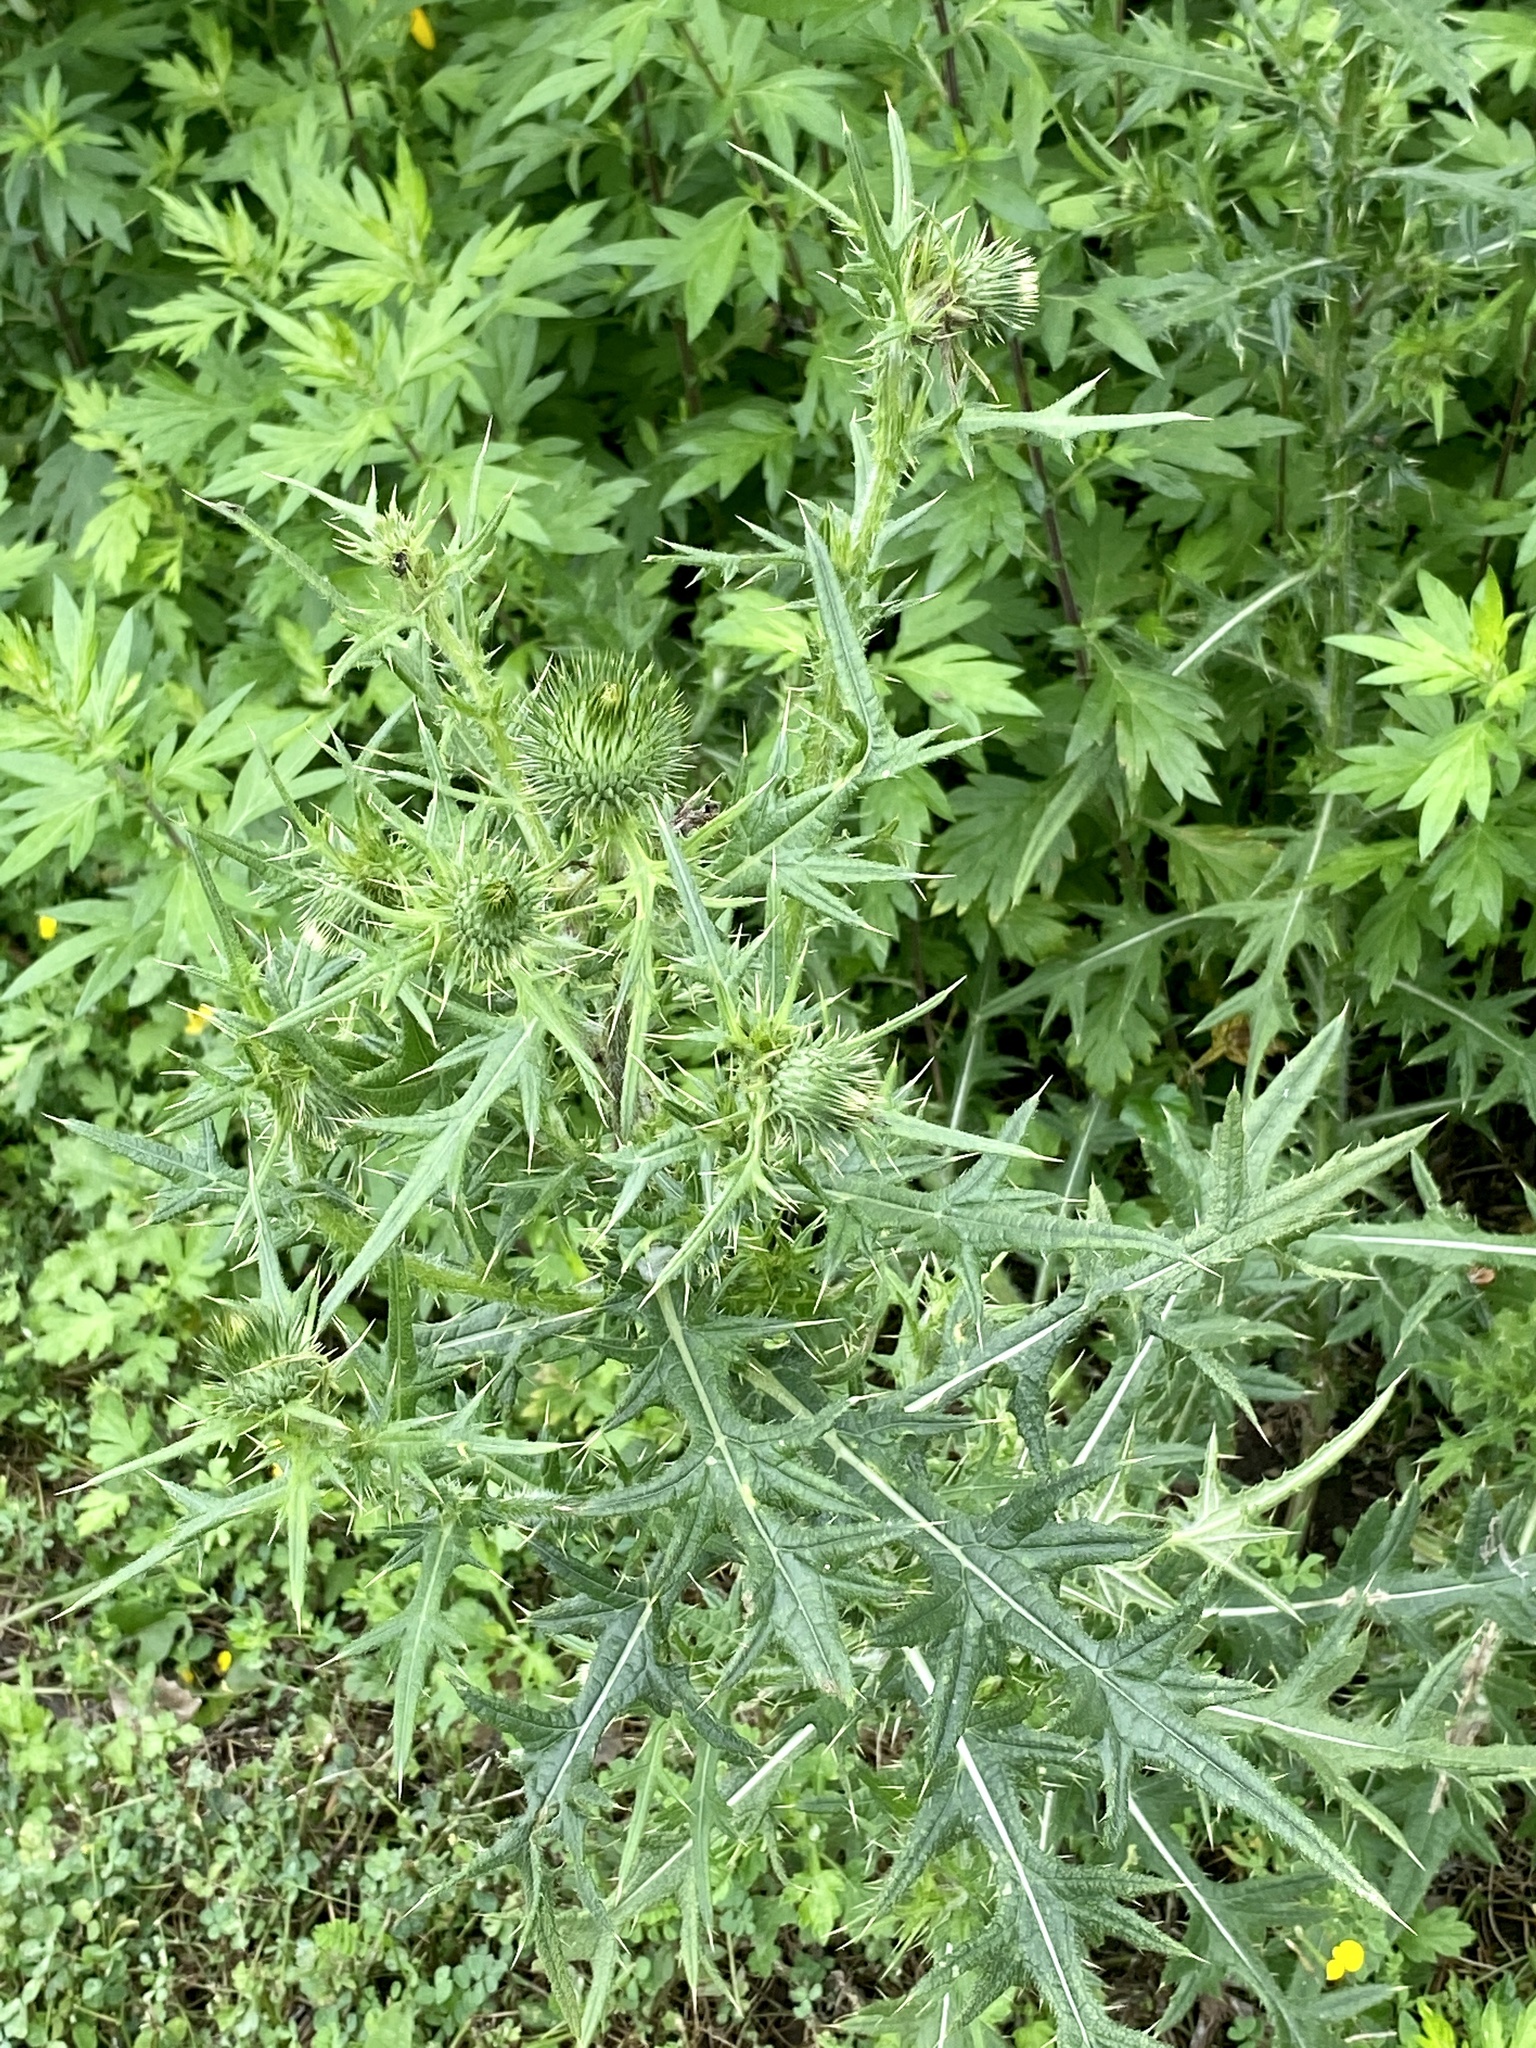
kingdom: Plantae
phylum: Tracheophyta
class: Magnoliopsida
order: Asterales
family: Asteraceae
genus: Cirsium
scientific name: Cirsium vulgare
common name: Bull thistle
